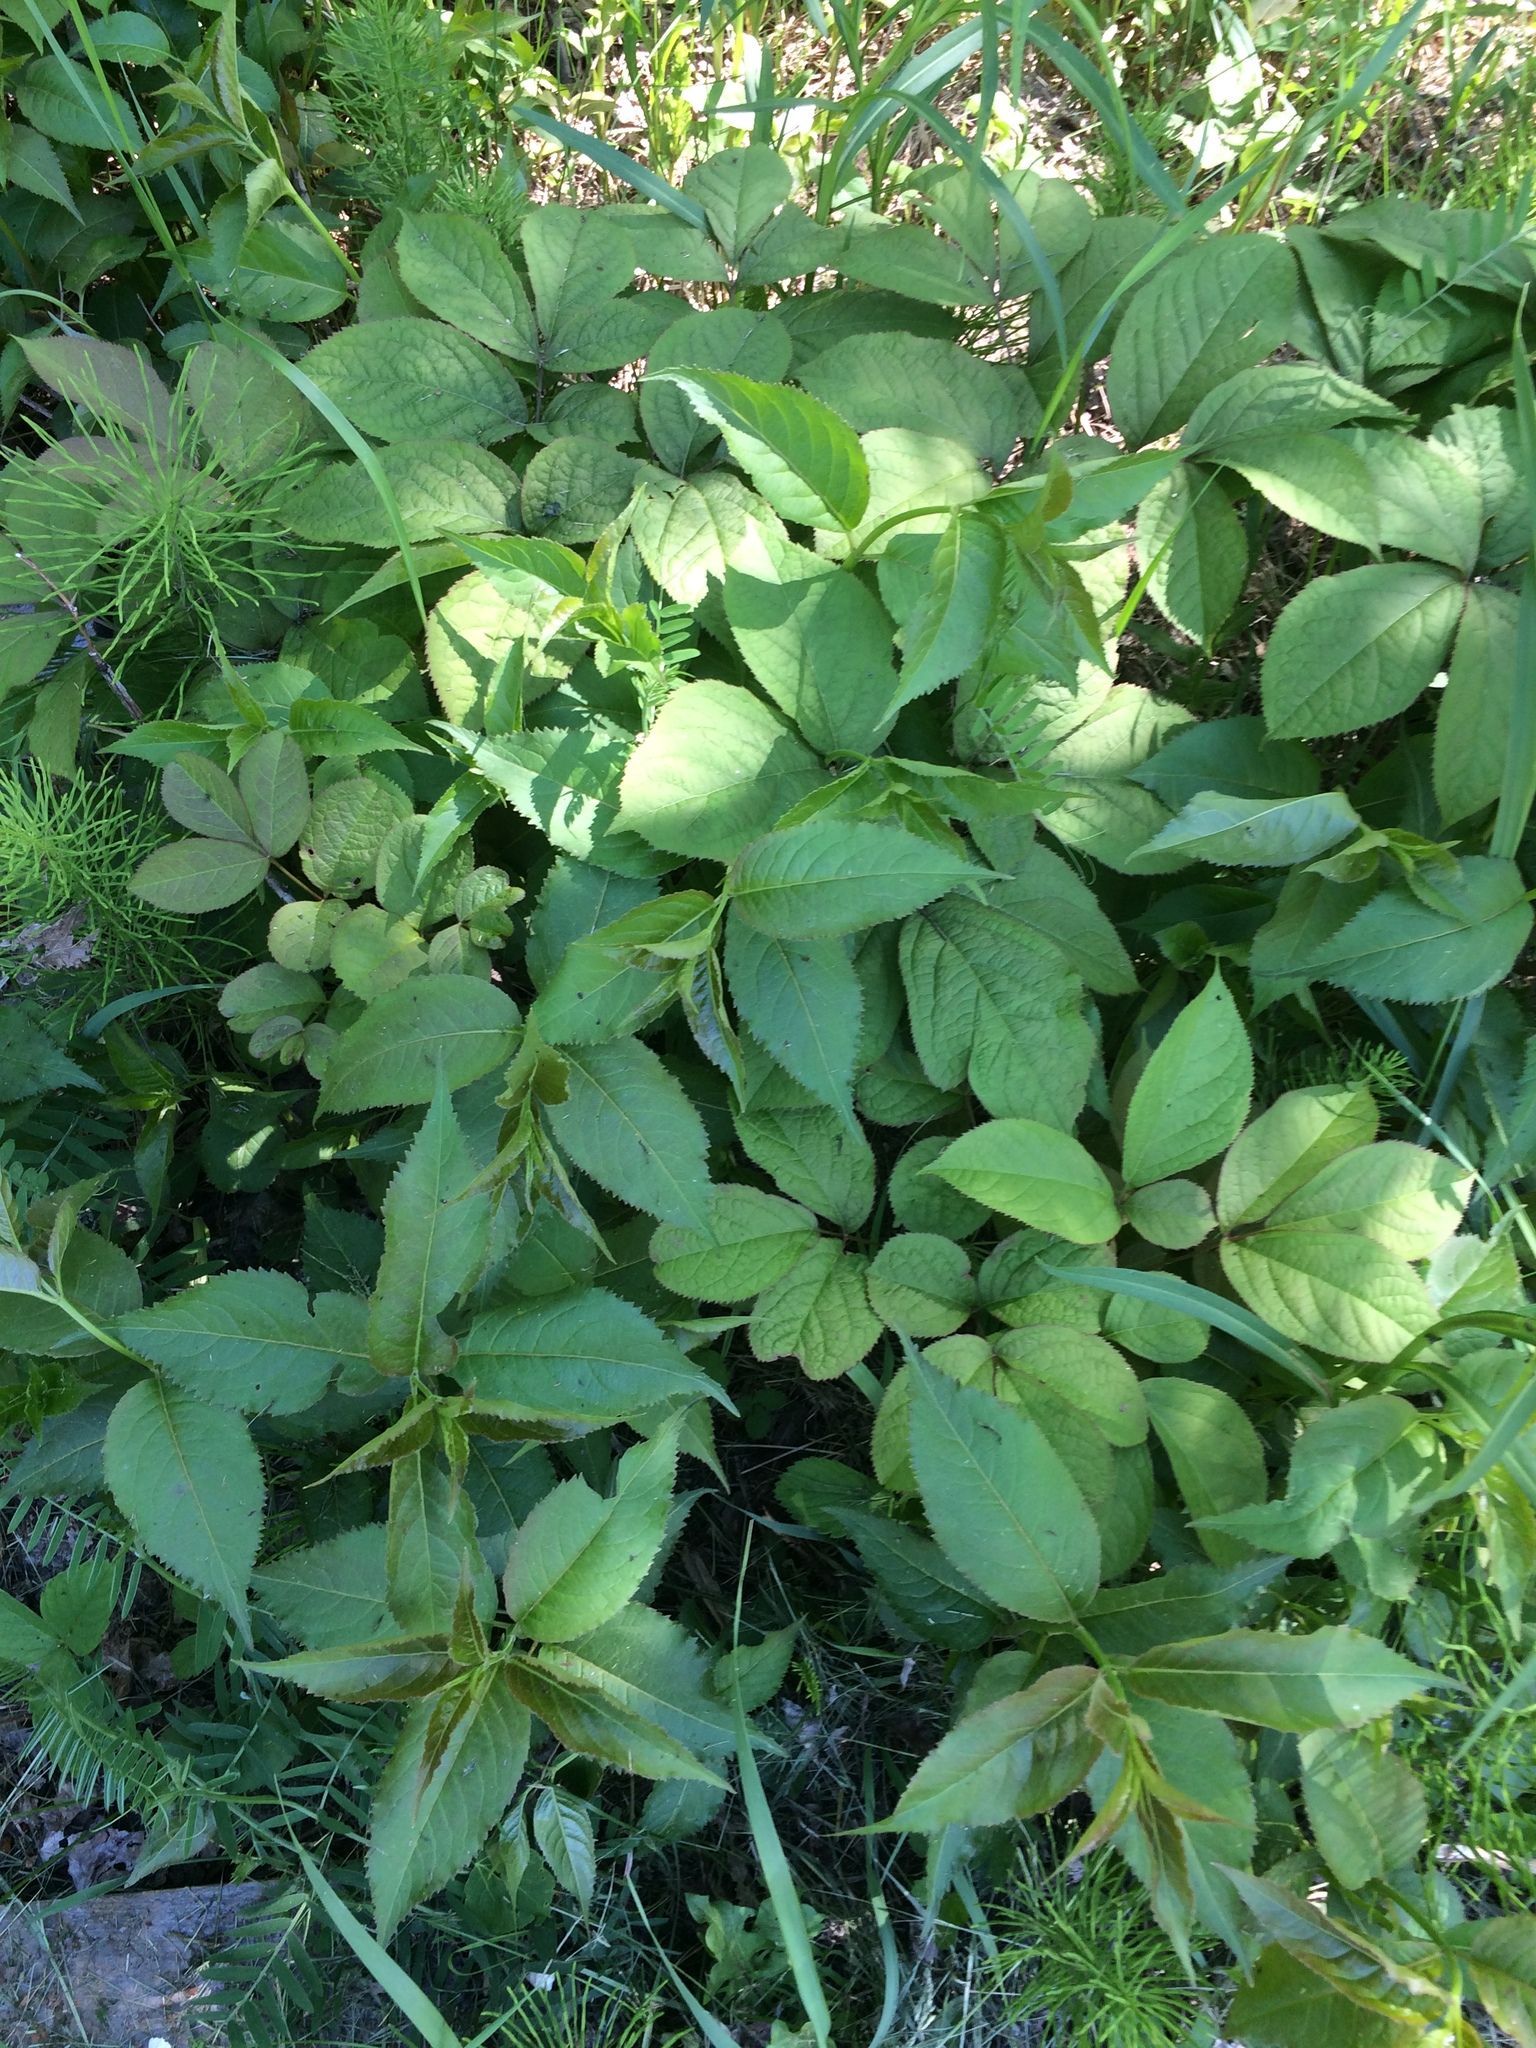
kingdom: Plantae
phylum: Tracheophyta
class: Polypodiopsida
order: Equisetales
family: Equisetaceae
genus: Equisetum
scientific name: Equisetum arvense
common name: Field horsetail
